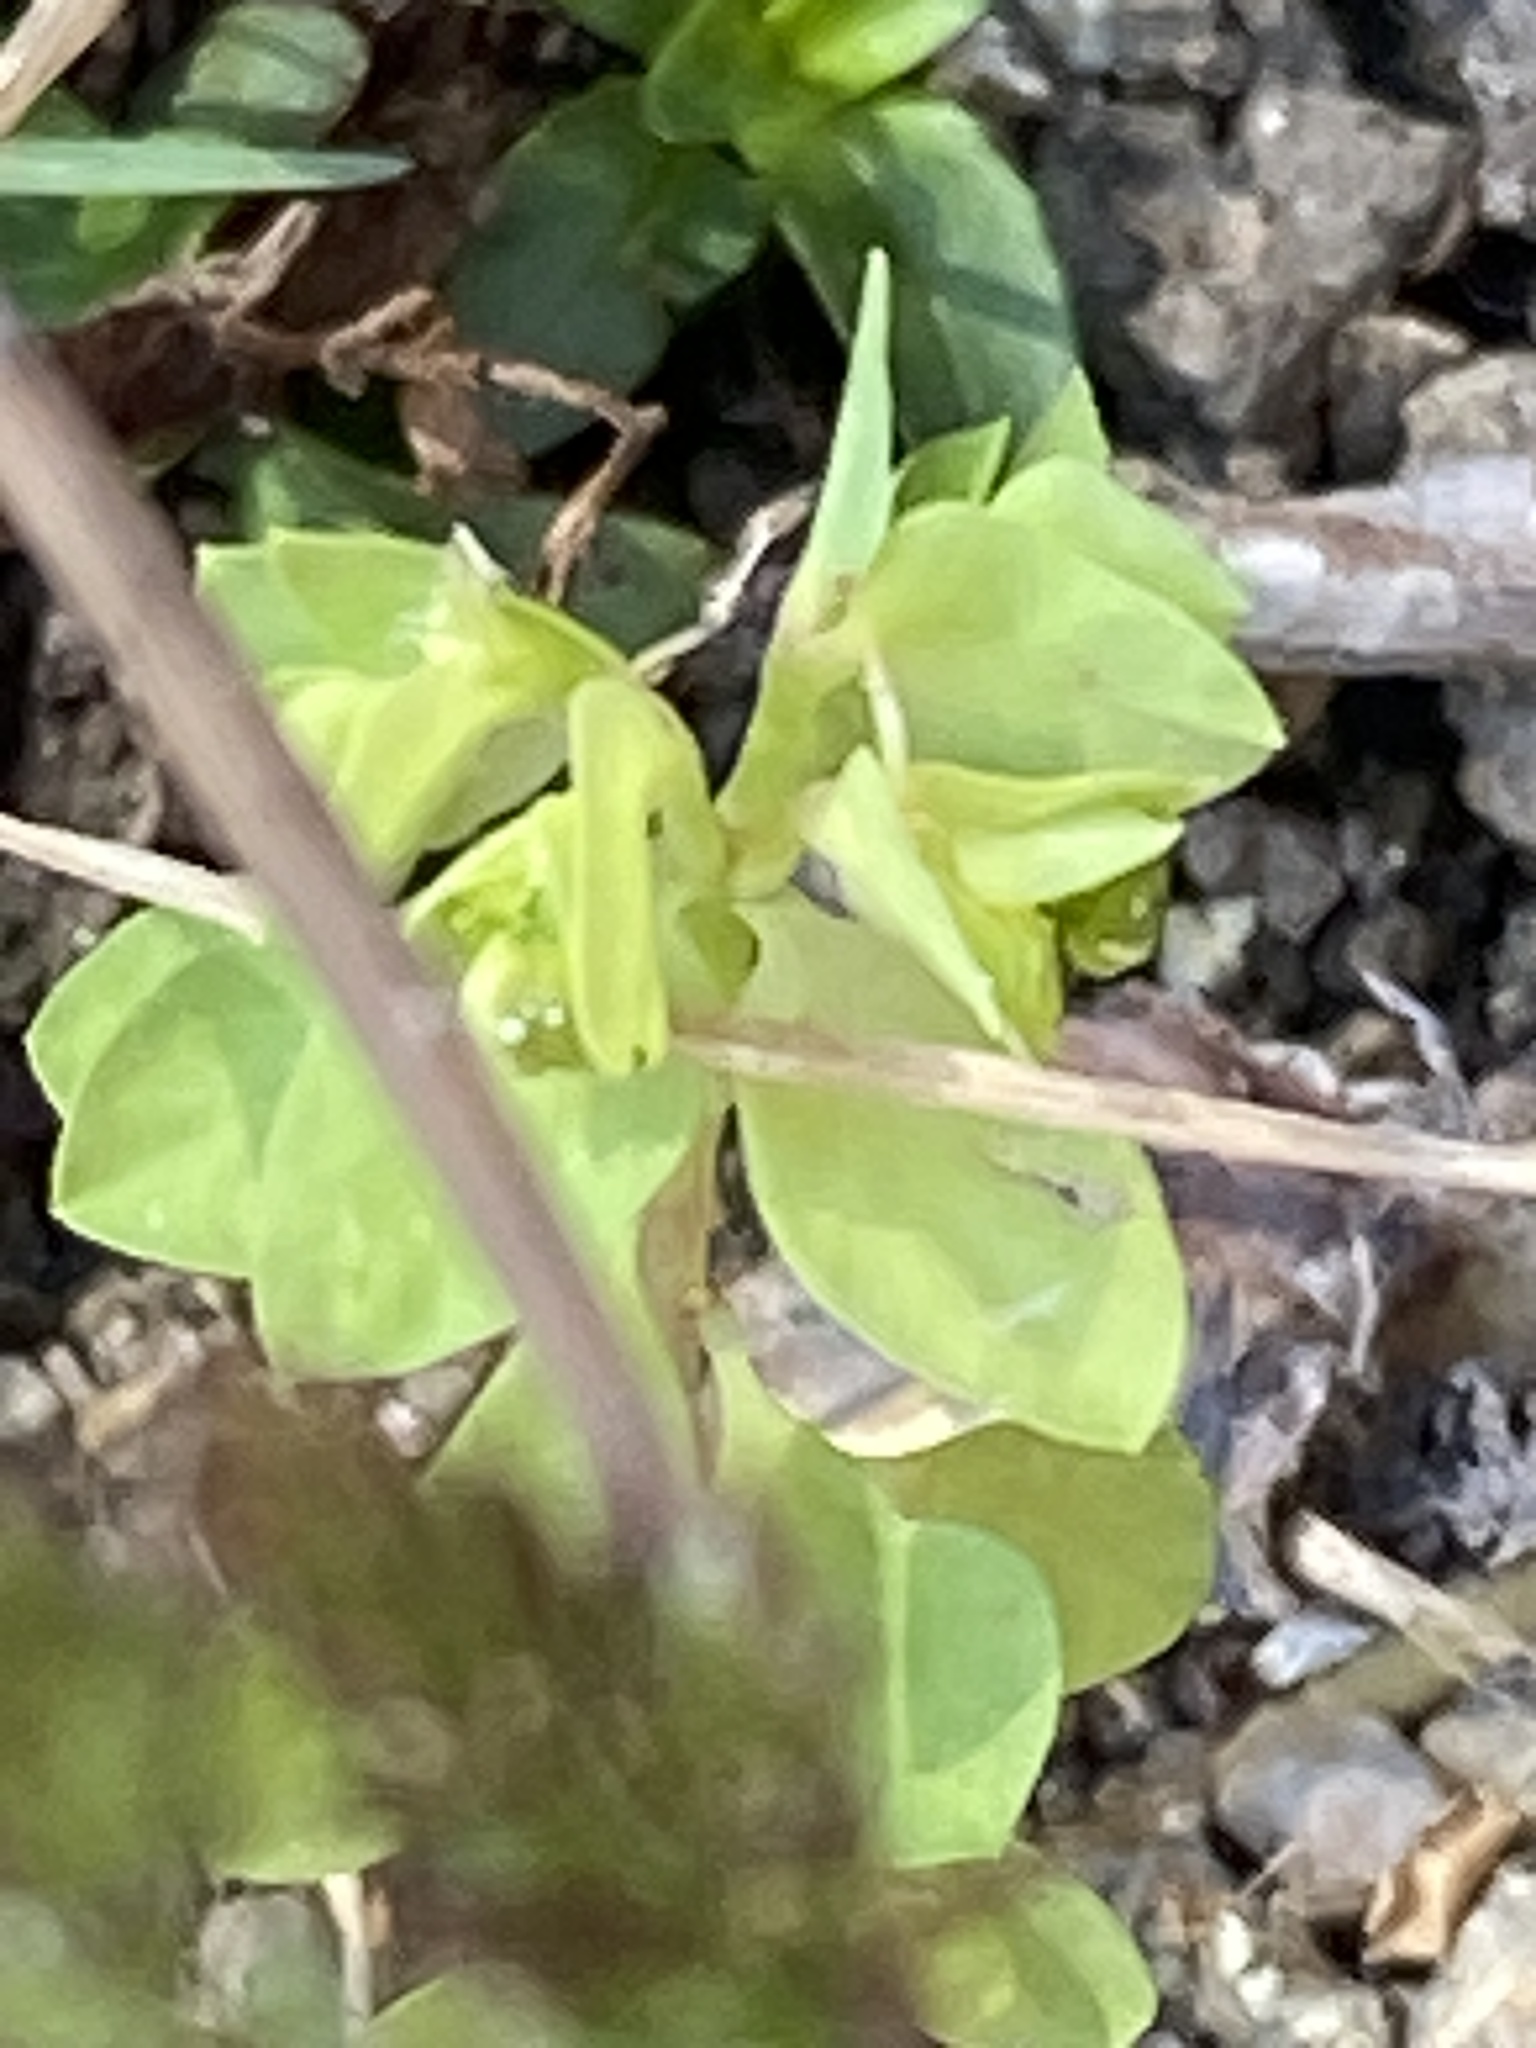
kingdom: Plantae
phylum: Tracheophyta
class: Magnoliopsida
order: Malpighiales
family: Euphorbiaceae
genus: Euphorbia
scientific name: Euphorbia peplus
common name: Petty spurge
